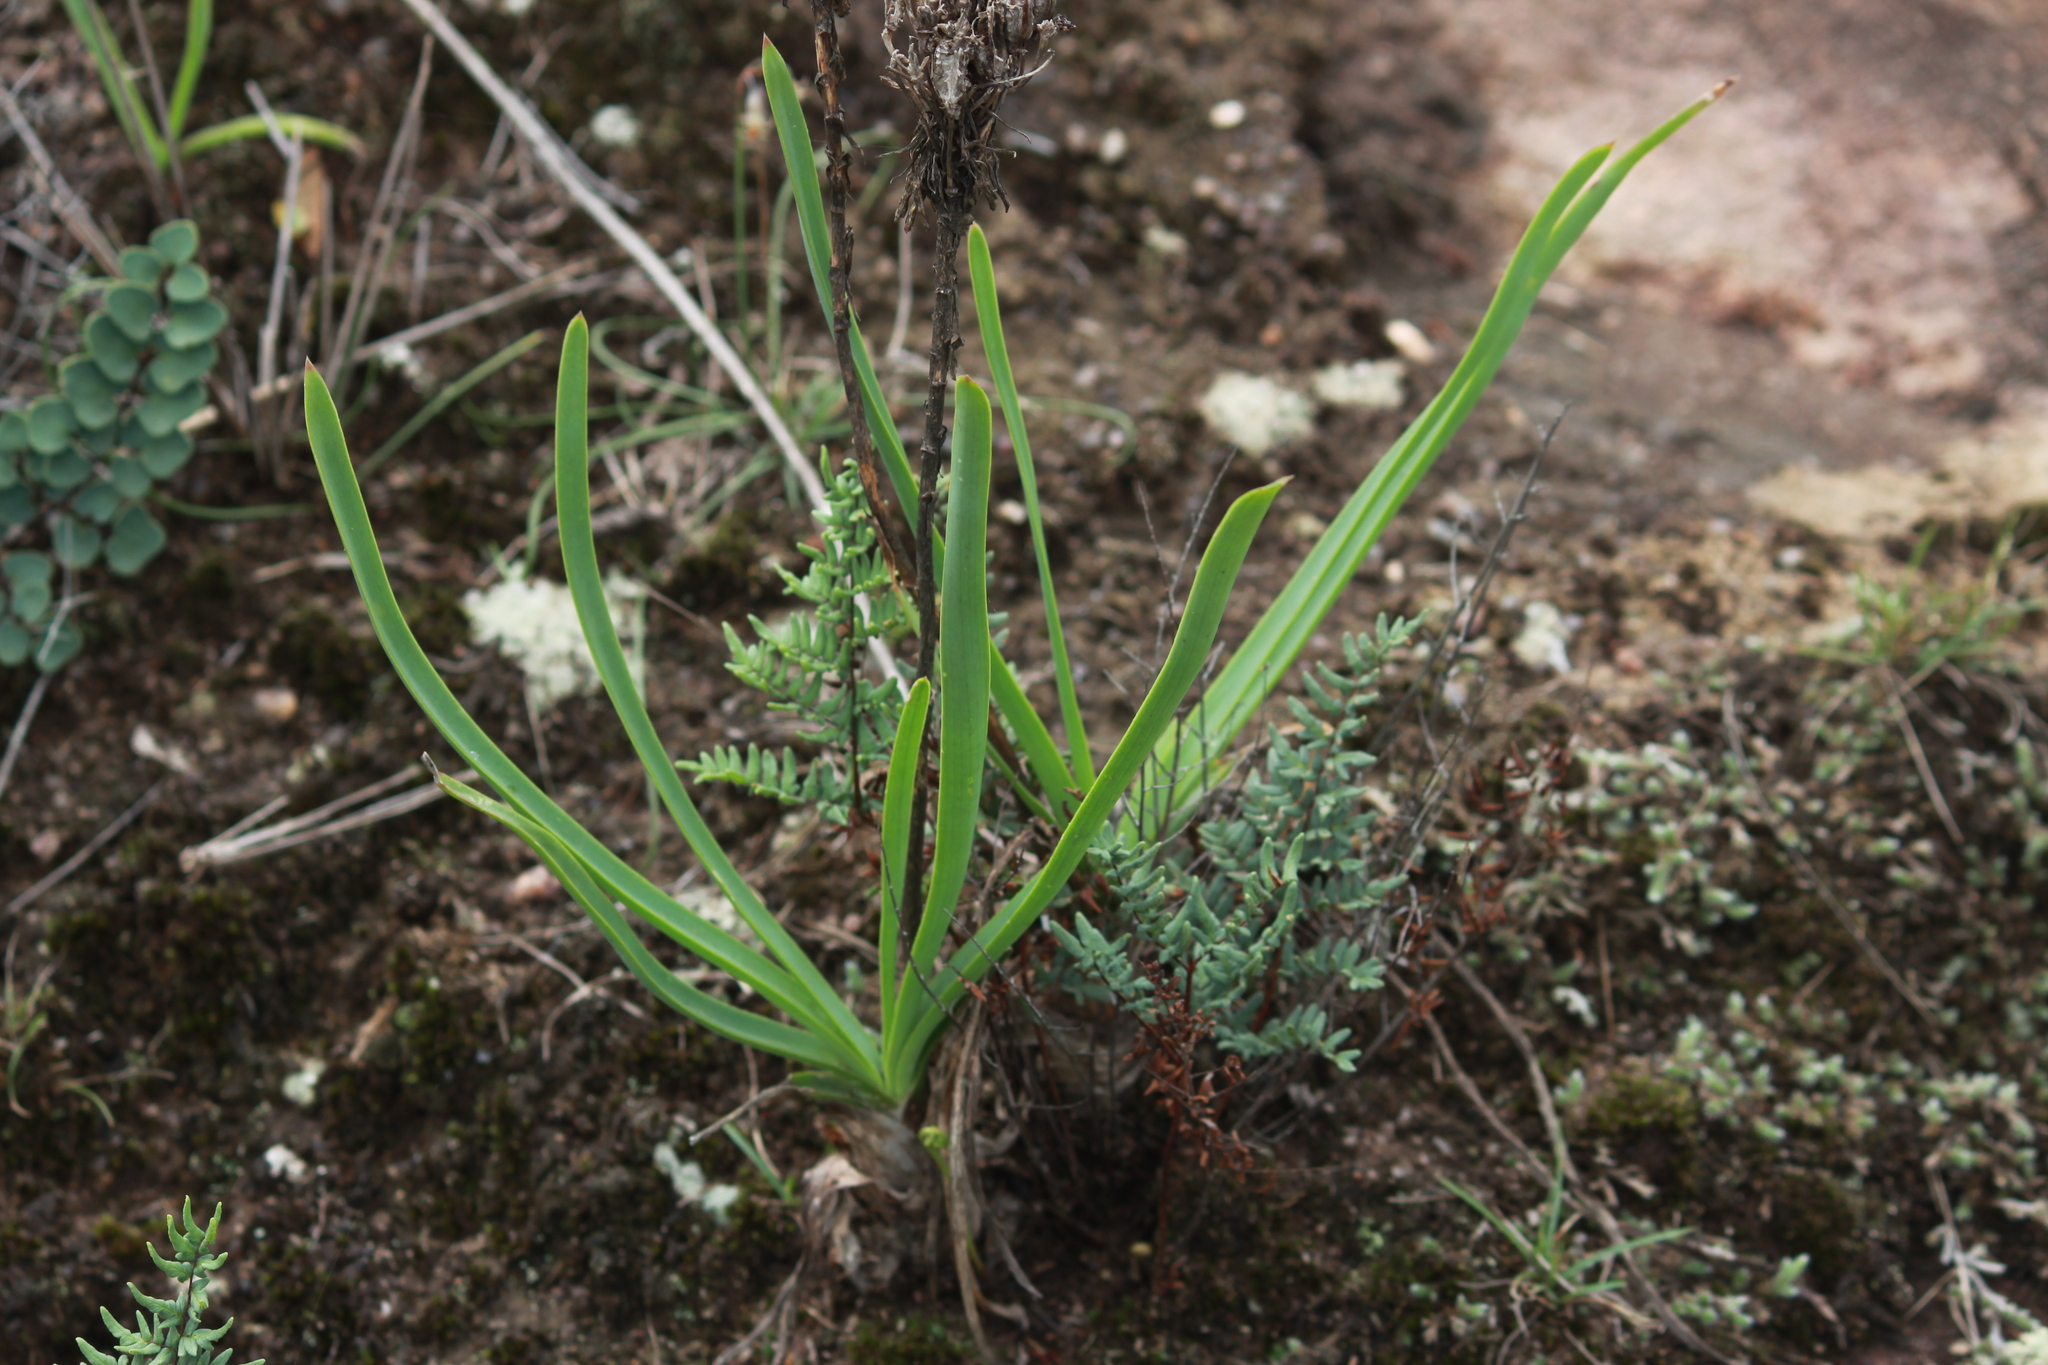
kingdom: Plantae
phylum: Tracheophyta
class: Liliopsida
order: Asparagales
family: Asphodelaceae
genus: Aloe
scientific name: Aloe linearifolia
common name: Dwarf yellow grass aloe
